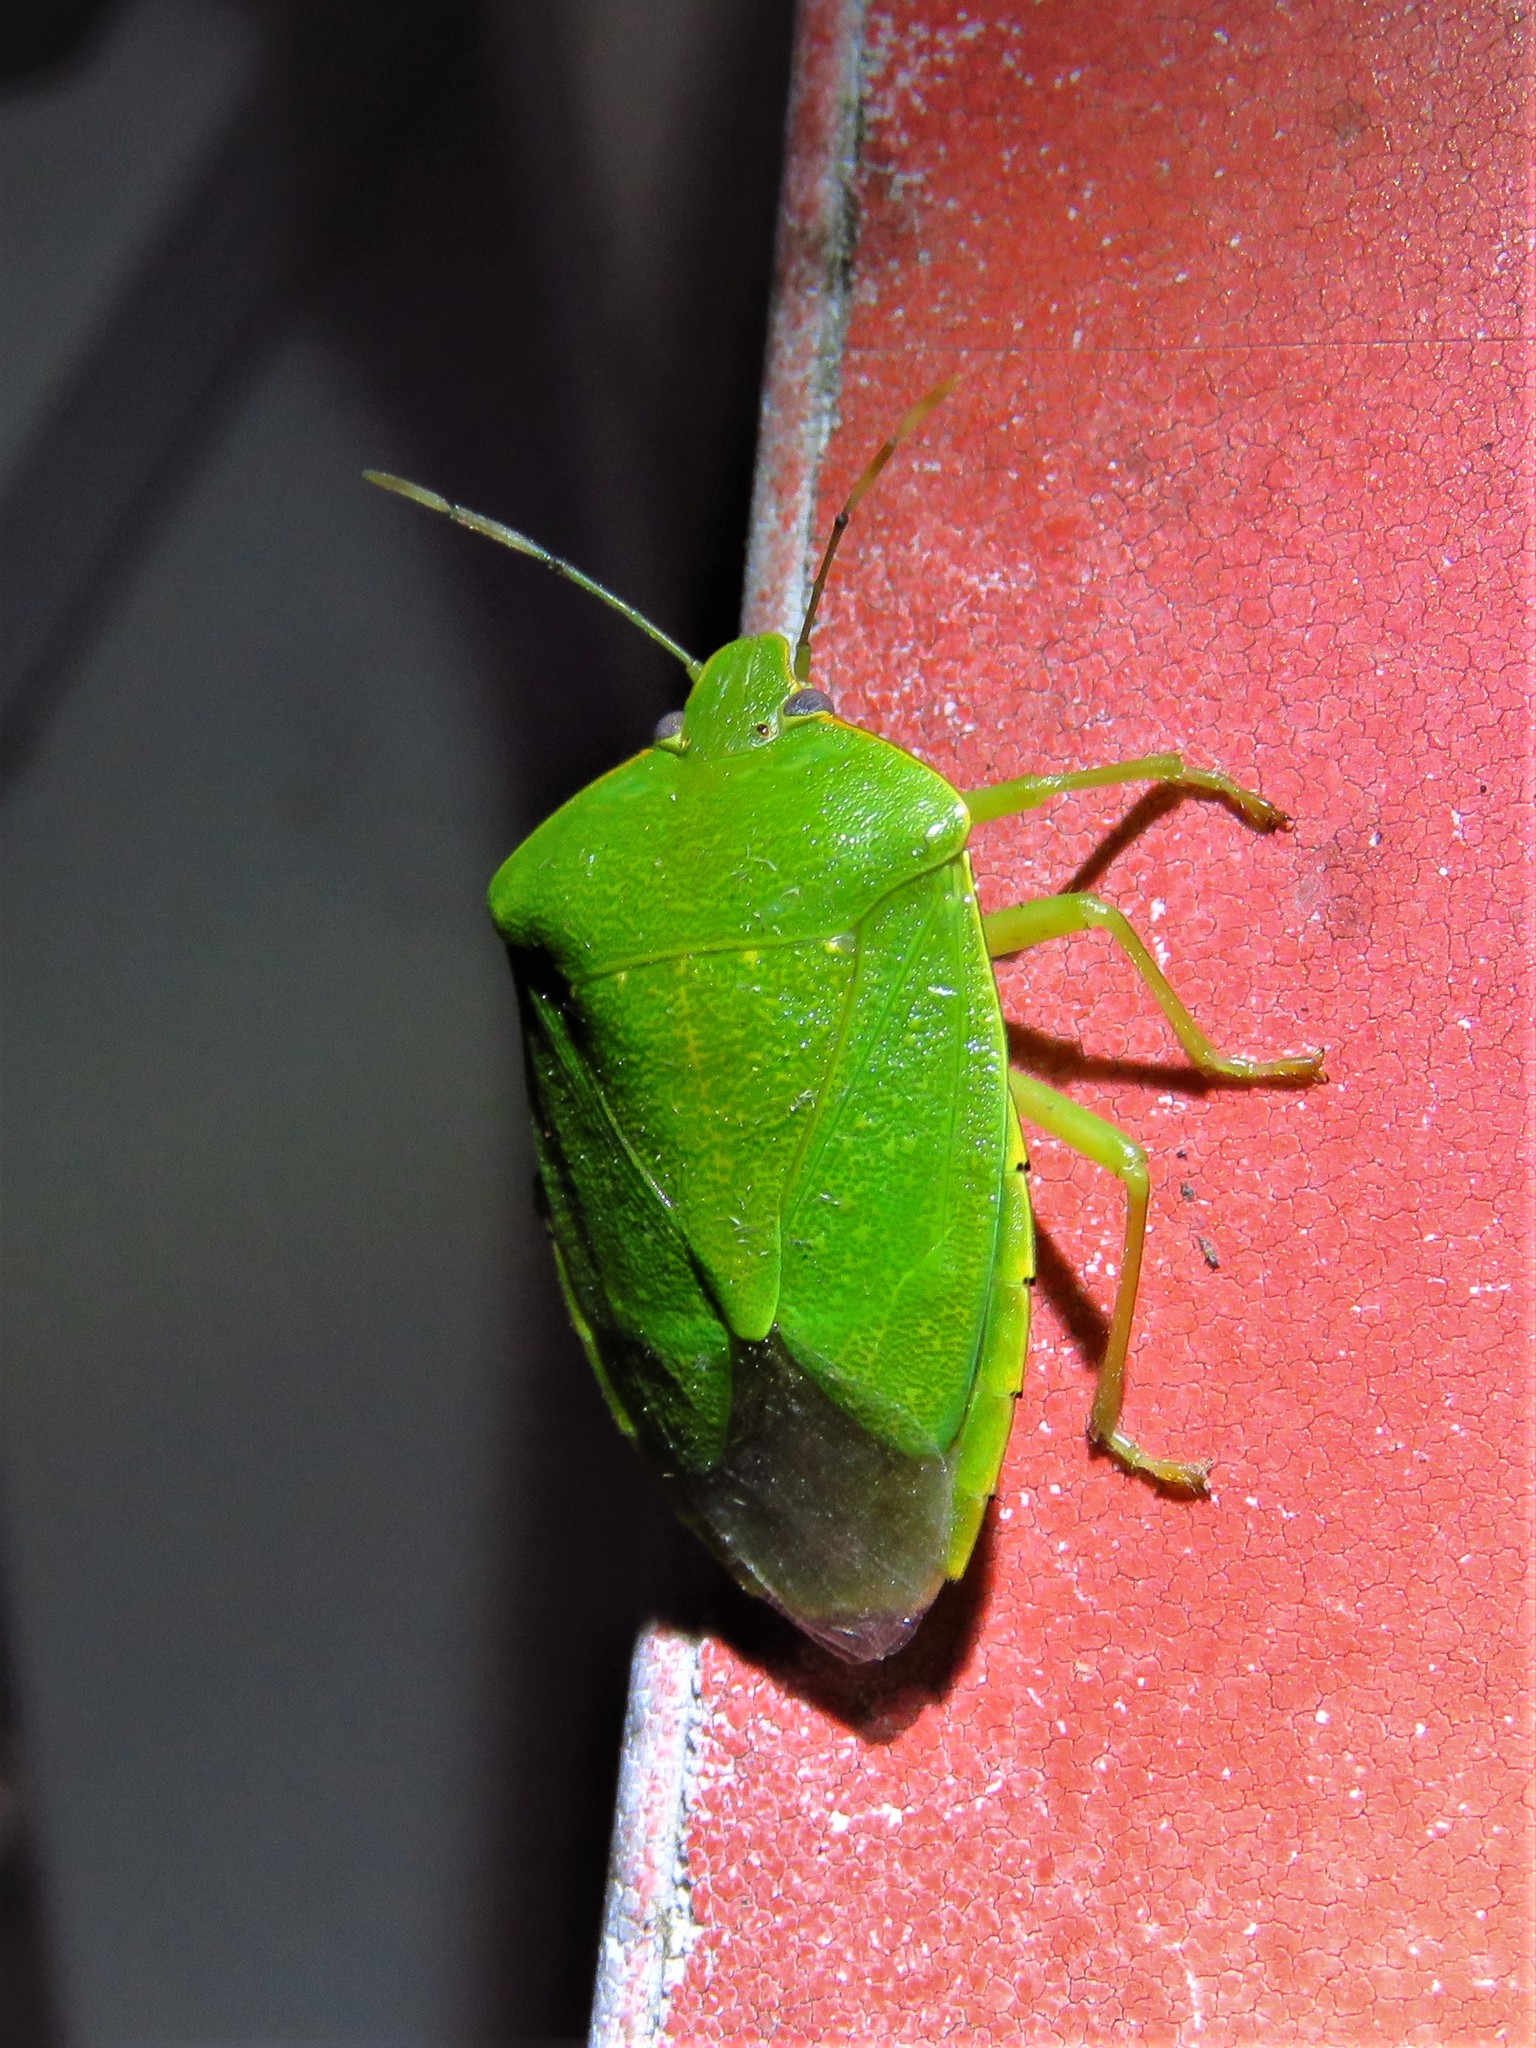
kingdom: Animalia
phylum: Arthropoda
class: Insecta
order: Hemiptera
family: Pentatomidae
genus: Chinavia
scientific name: Chinavia hilaris
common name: Green stink bug
